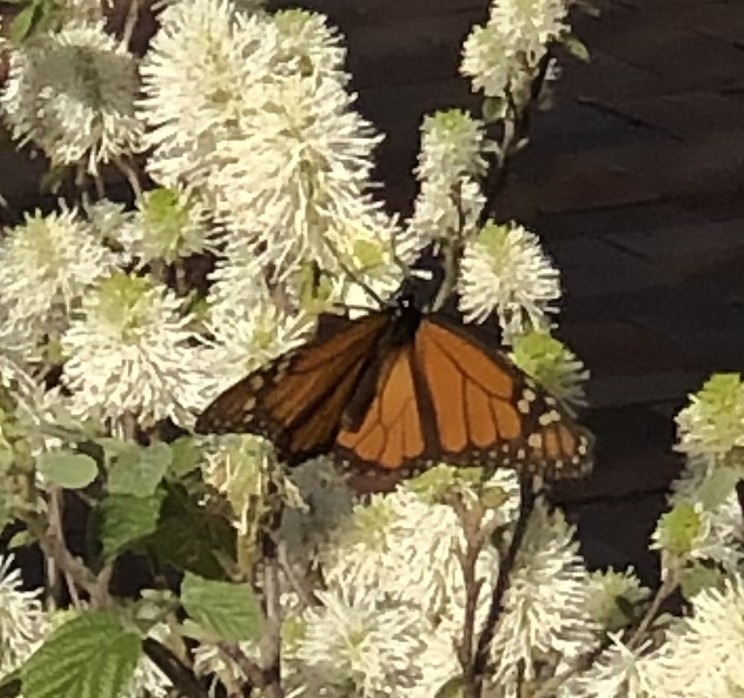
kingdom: Animalia
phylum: Arthropoda
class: Insecta
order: Lepidoptera
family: Nymphalidae
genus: Danaus
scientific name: Danaus plexippus
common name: Monarch
